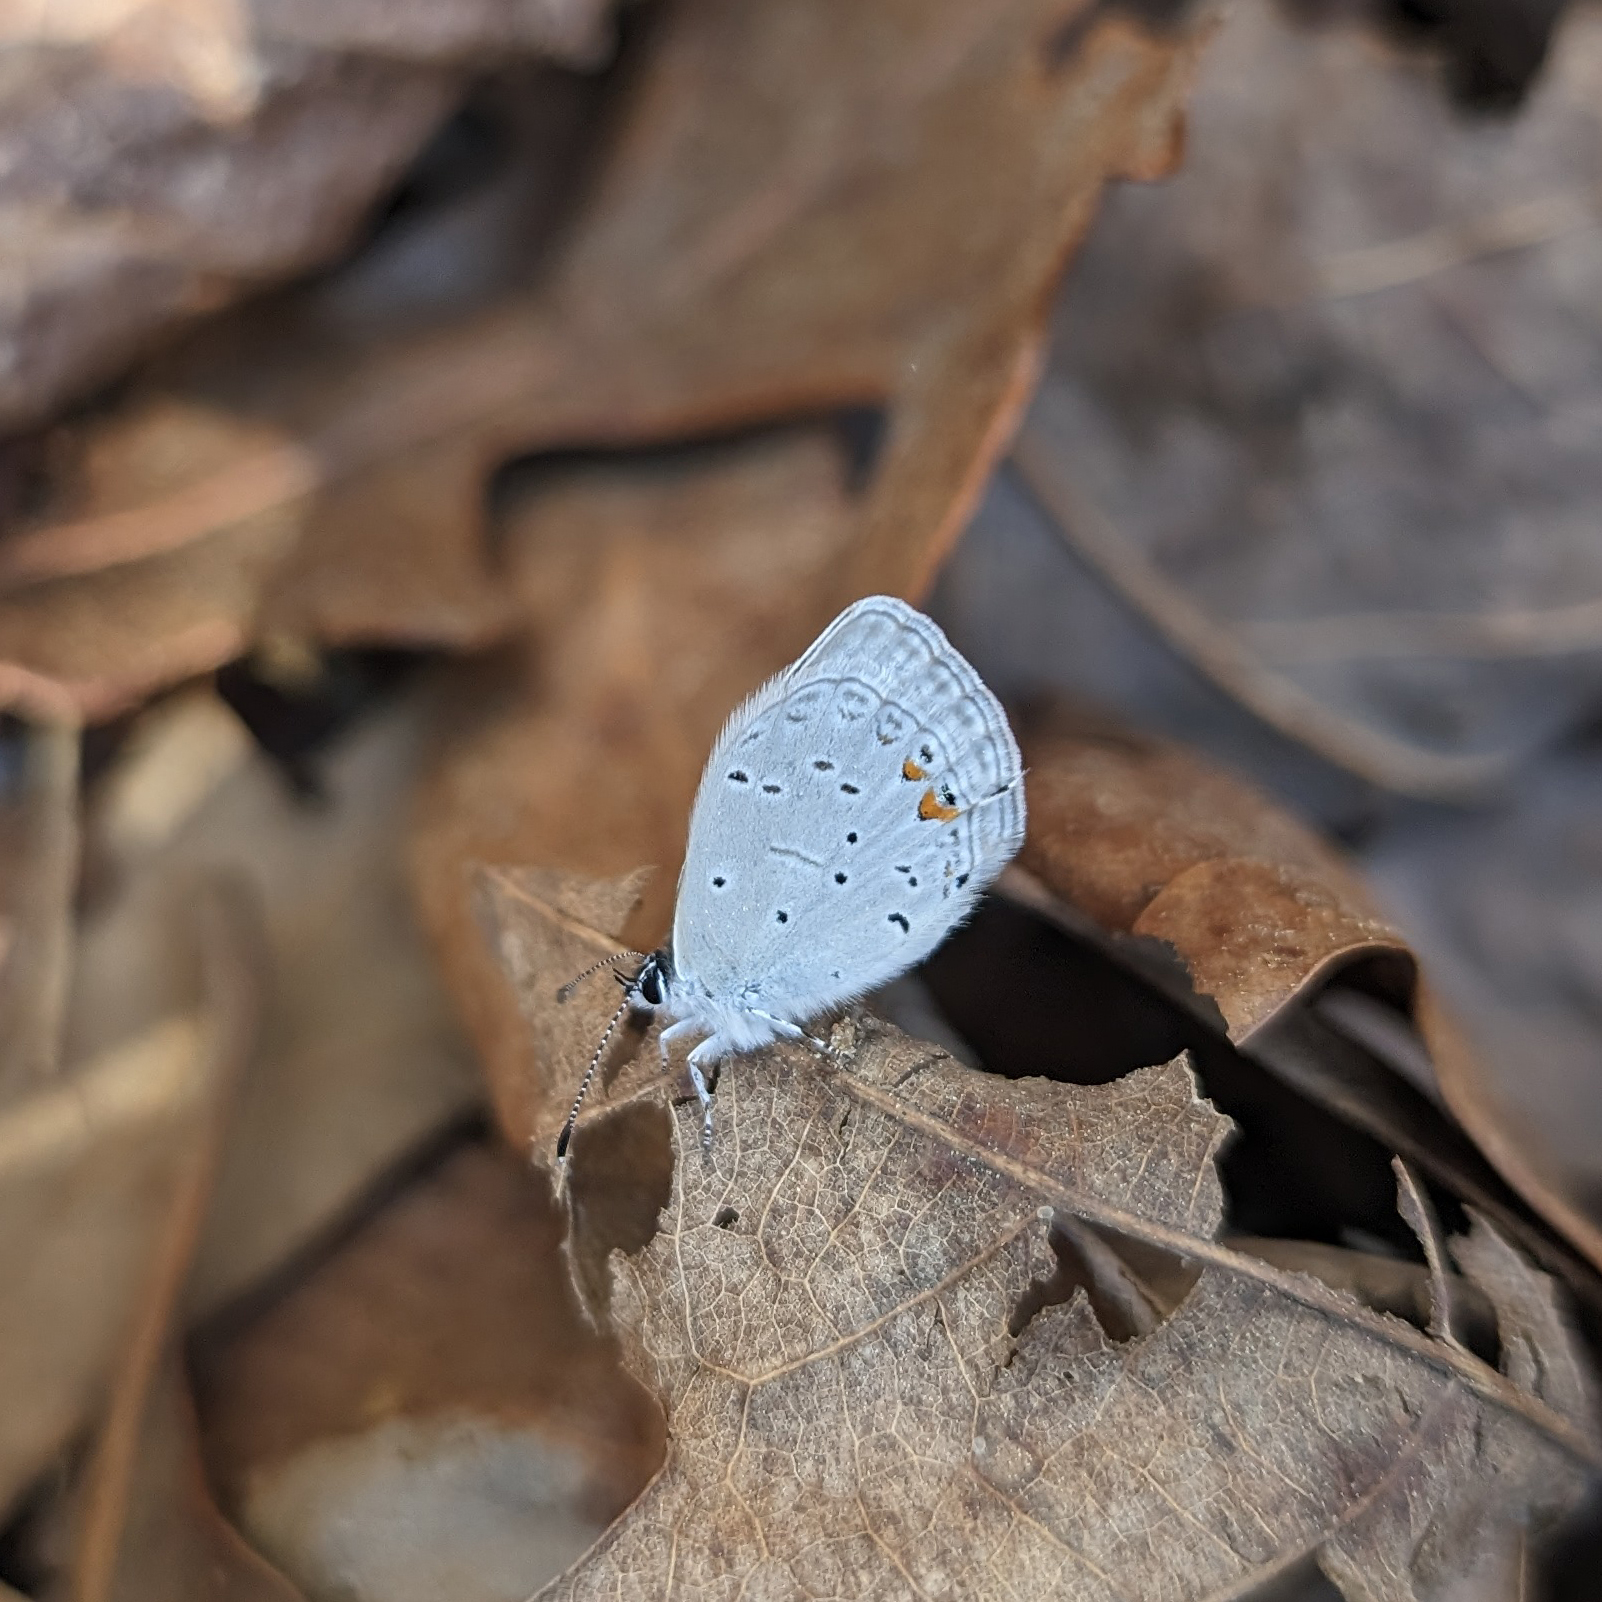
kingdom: Animalia
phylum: Arthropoda
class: Insecta
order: Lepidoptera
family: Lycaenidae
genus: Elkalyce
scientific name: Elkalyce comyntas
